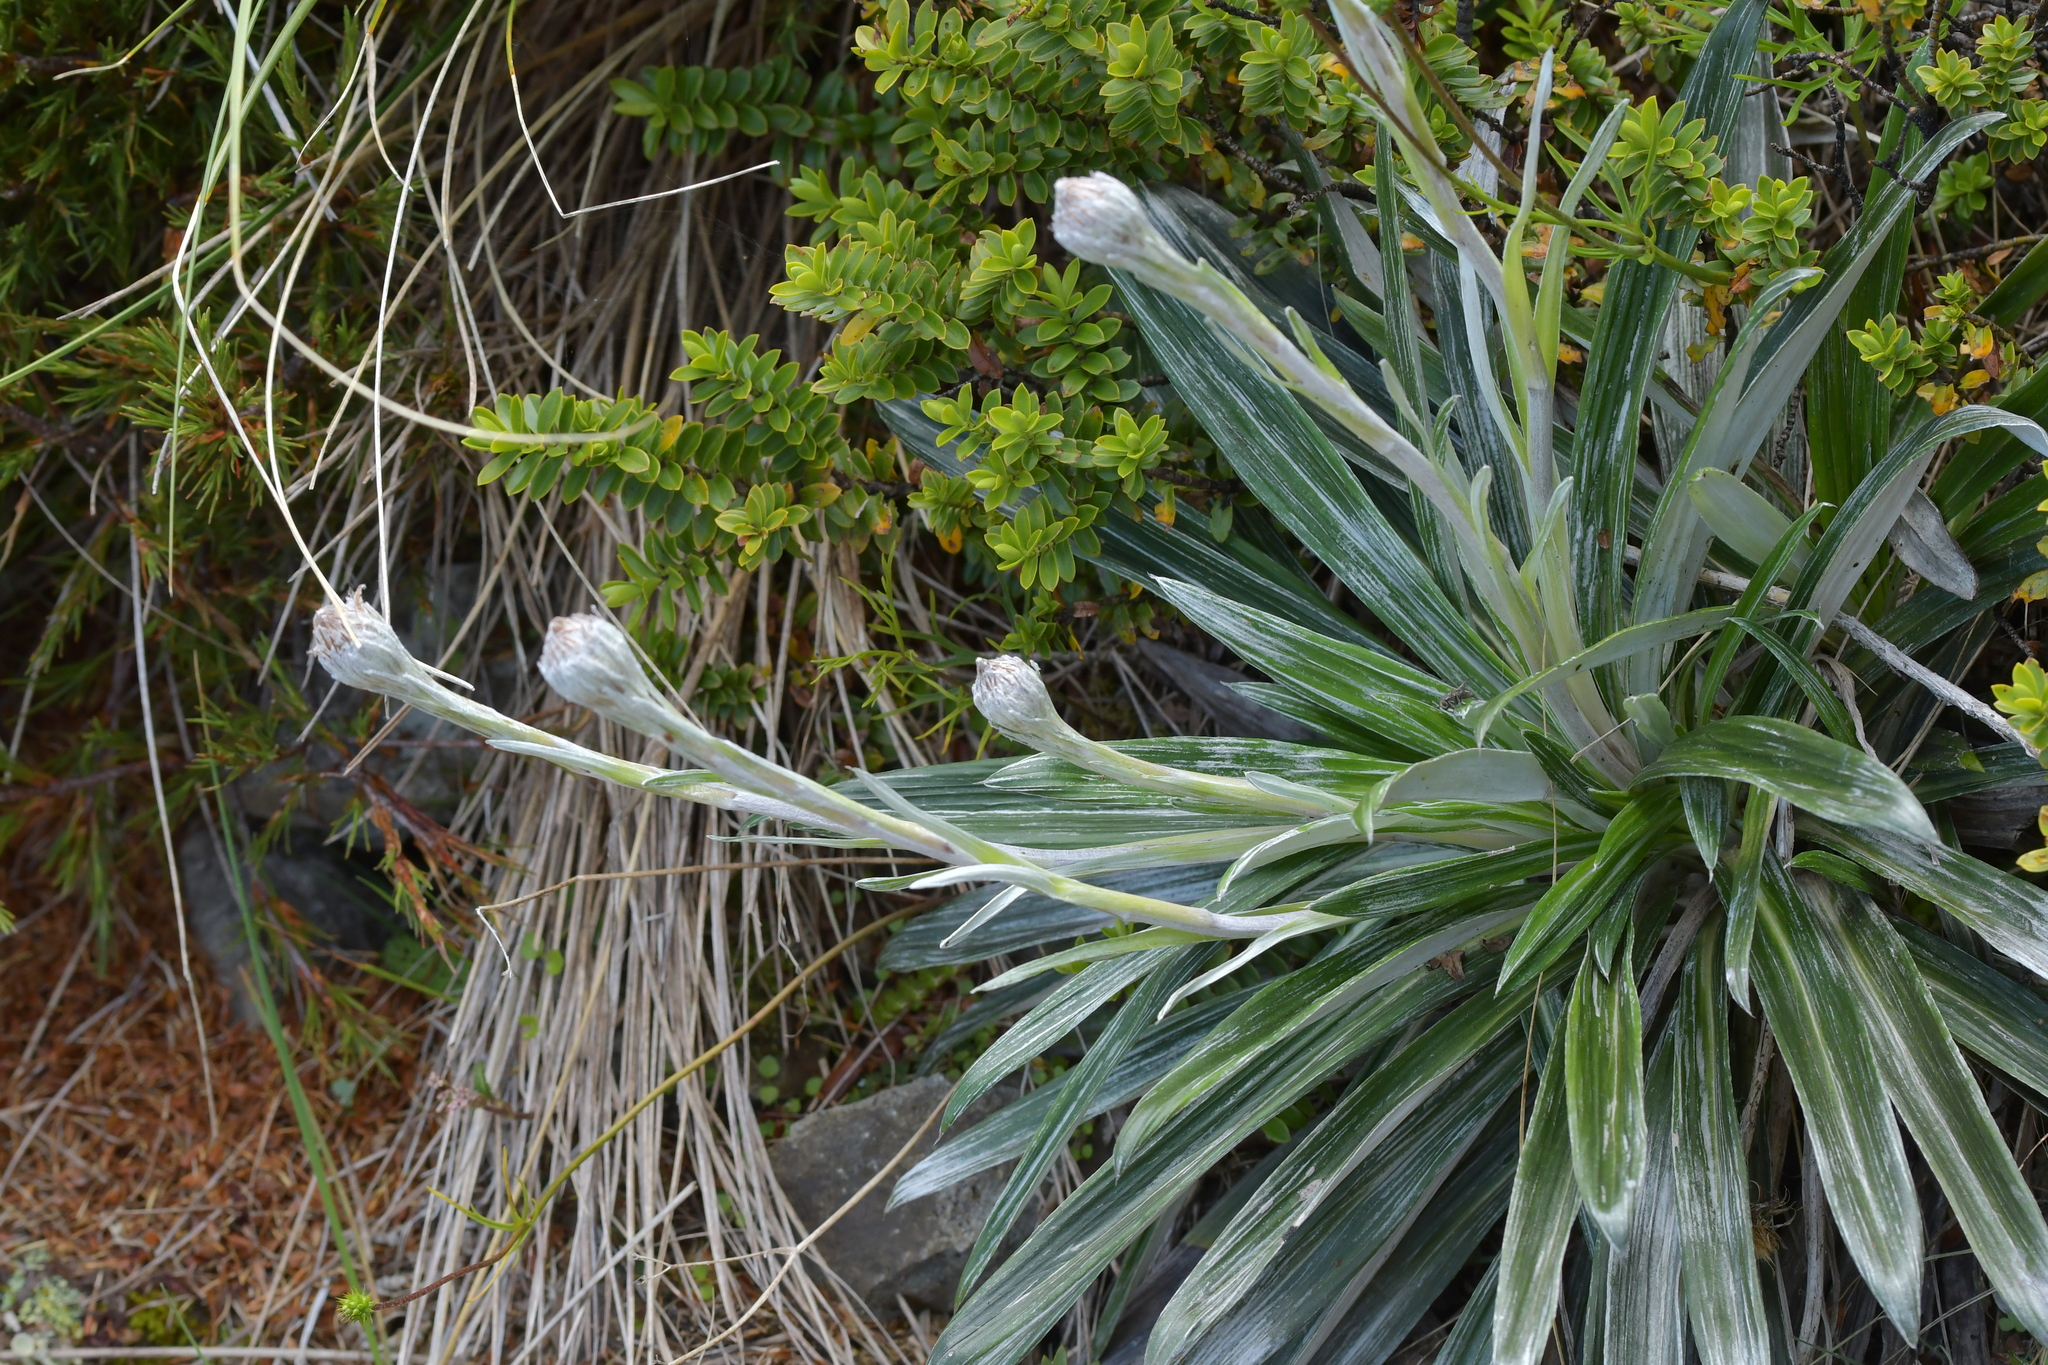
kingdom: Plantae
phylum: Tracheophyta
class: Magnoliopsida
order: Asterales
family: Asteraceae
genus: Celmisia
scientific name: Celmisia monroi
